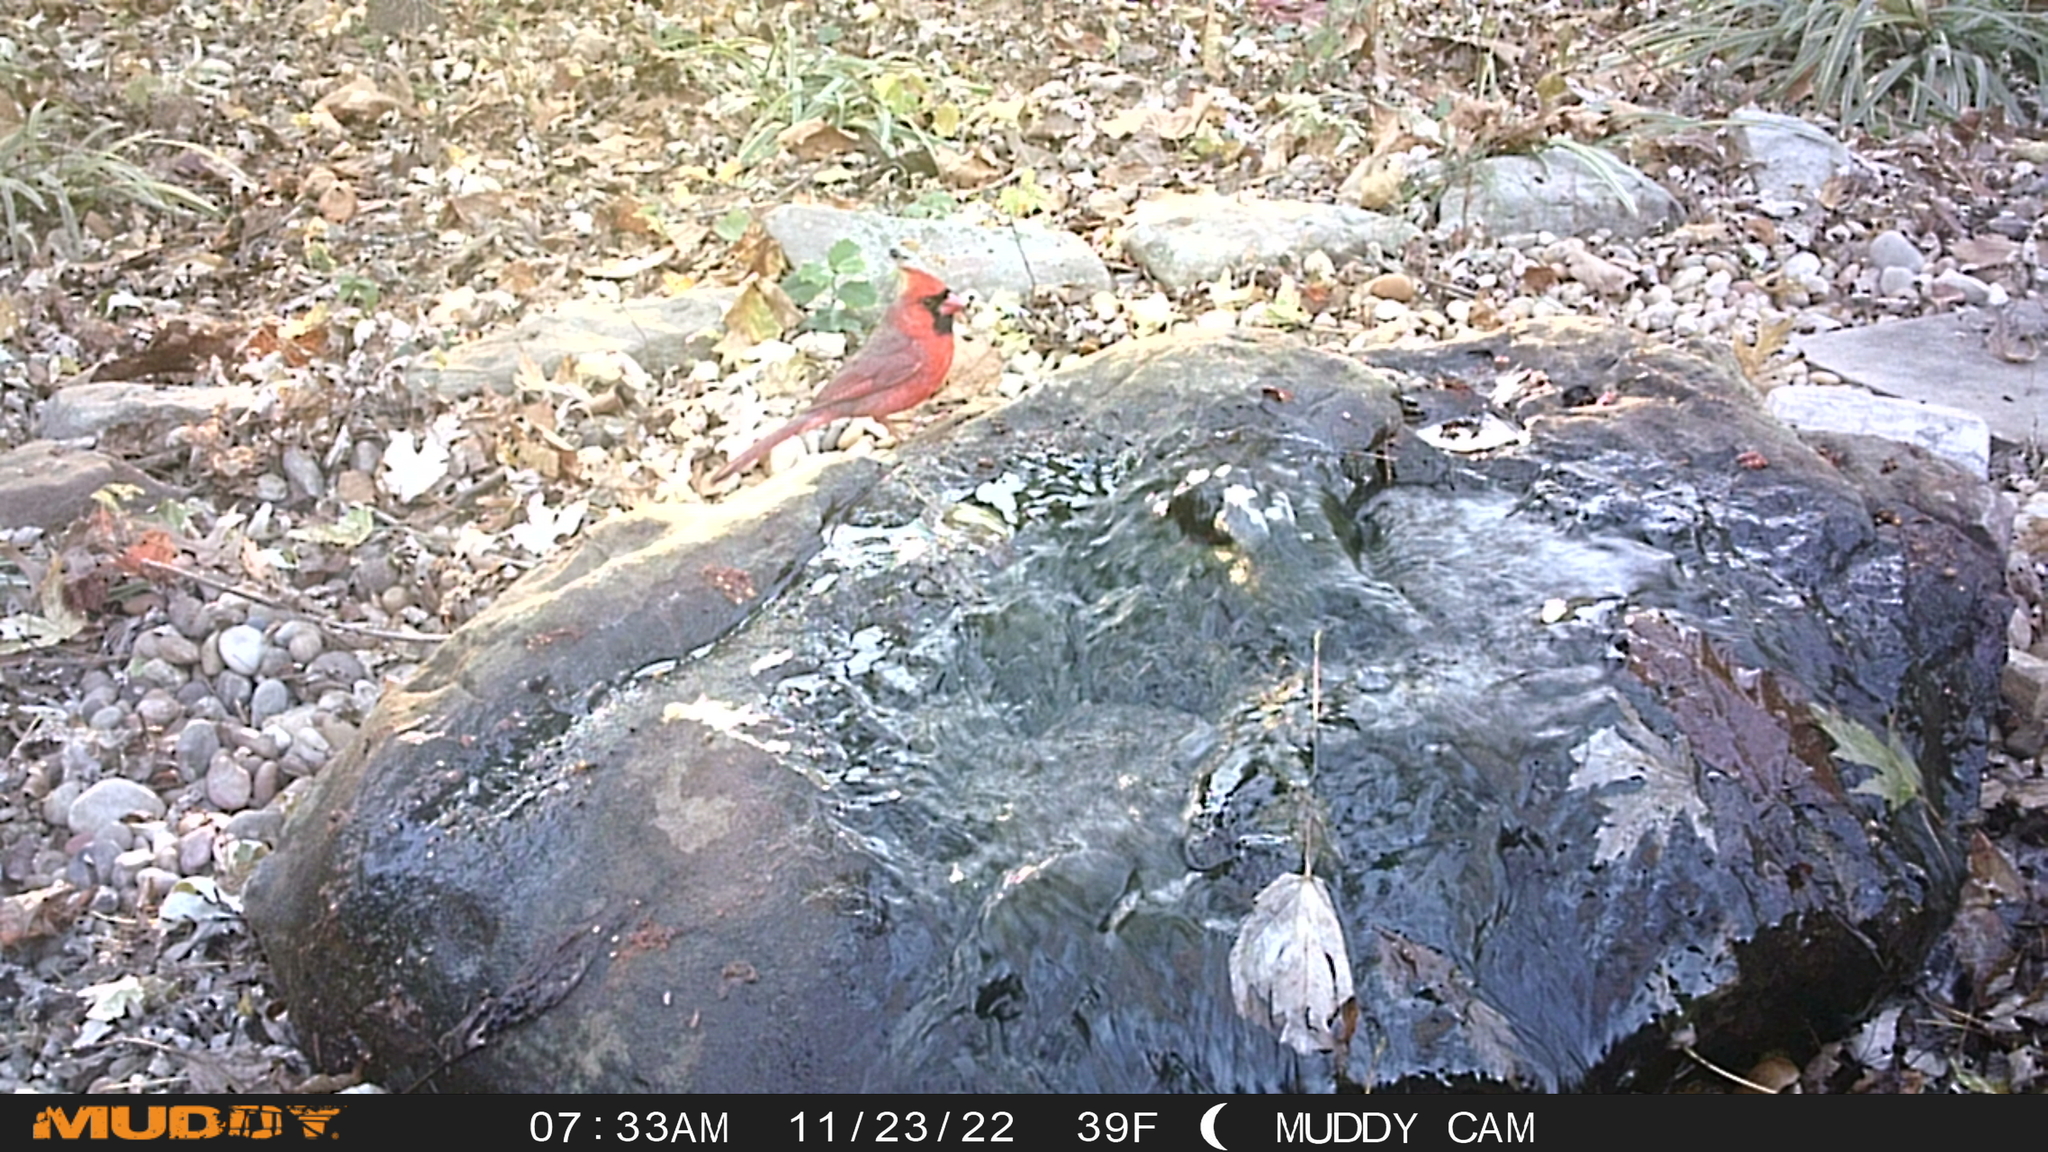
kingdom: Animalia
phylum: Chordata
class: Aves
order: Passeriformes
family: Cardinalidae
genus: Cardinalis
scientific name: Cardinalis cardinalis
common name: Northern cardinal
